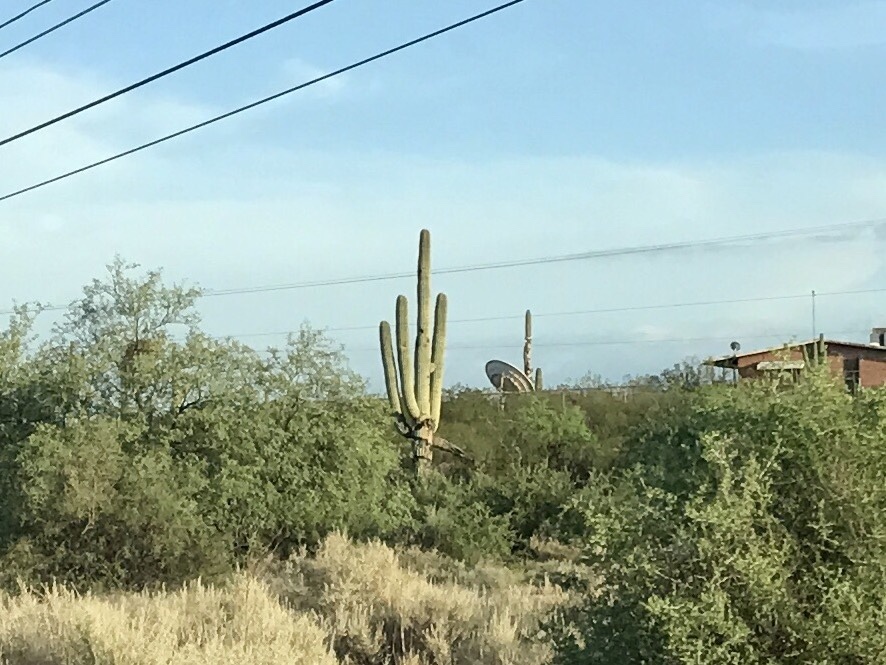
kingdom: Plantae
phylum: Tracheophyta
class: Magnoliopsida
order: Caryophyllales
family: Cactaceae
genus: Carnegiea
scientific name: Carnegiea gigantea
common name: Saguaro
